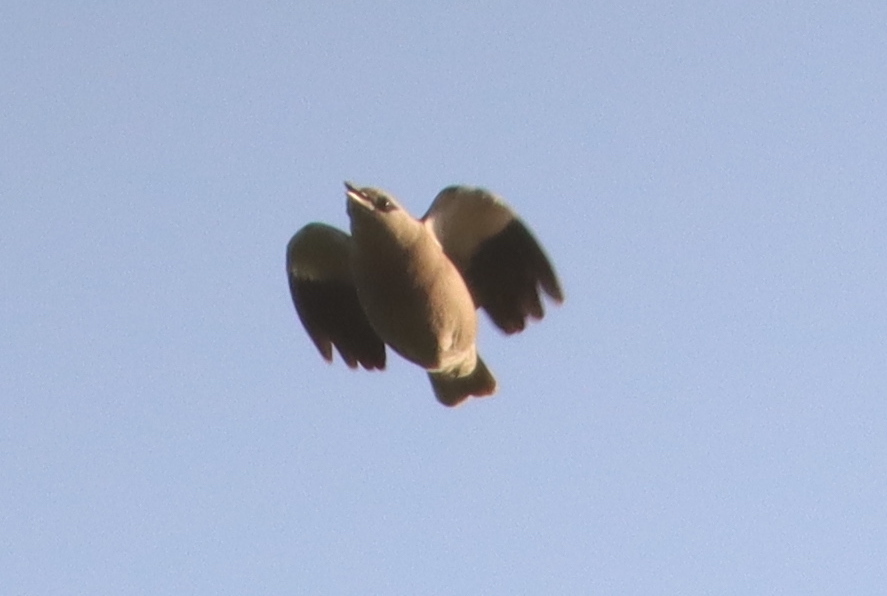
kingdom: Animalia
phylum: Chordata
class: Aves
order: Passeriformes
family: Sturnidae
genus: Sturnia
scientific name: Sturnia sinensis
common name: White-shouldered starling
